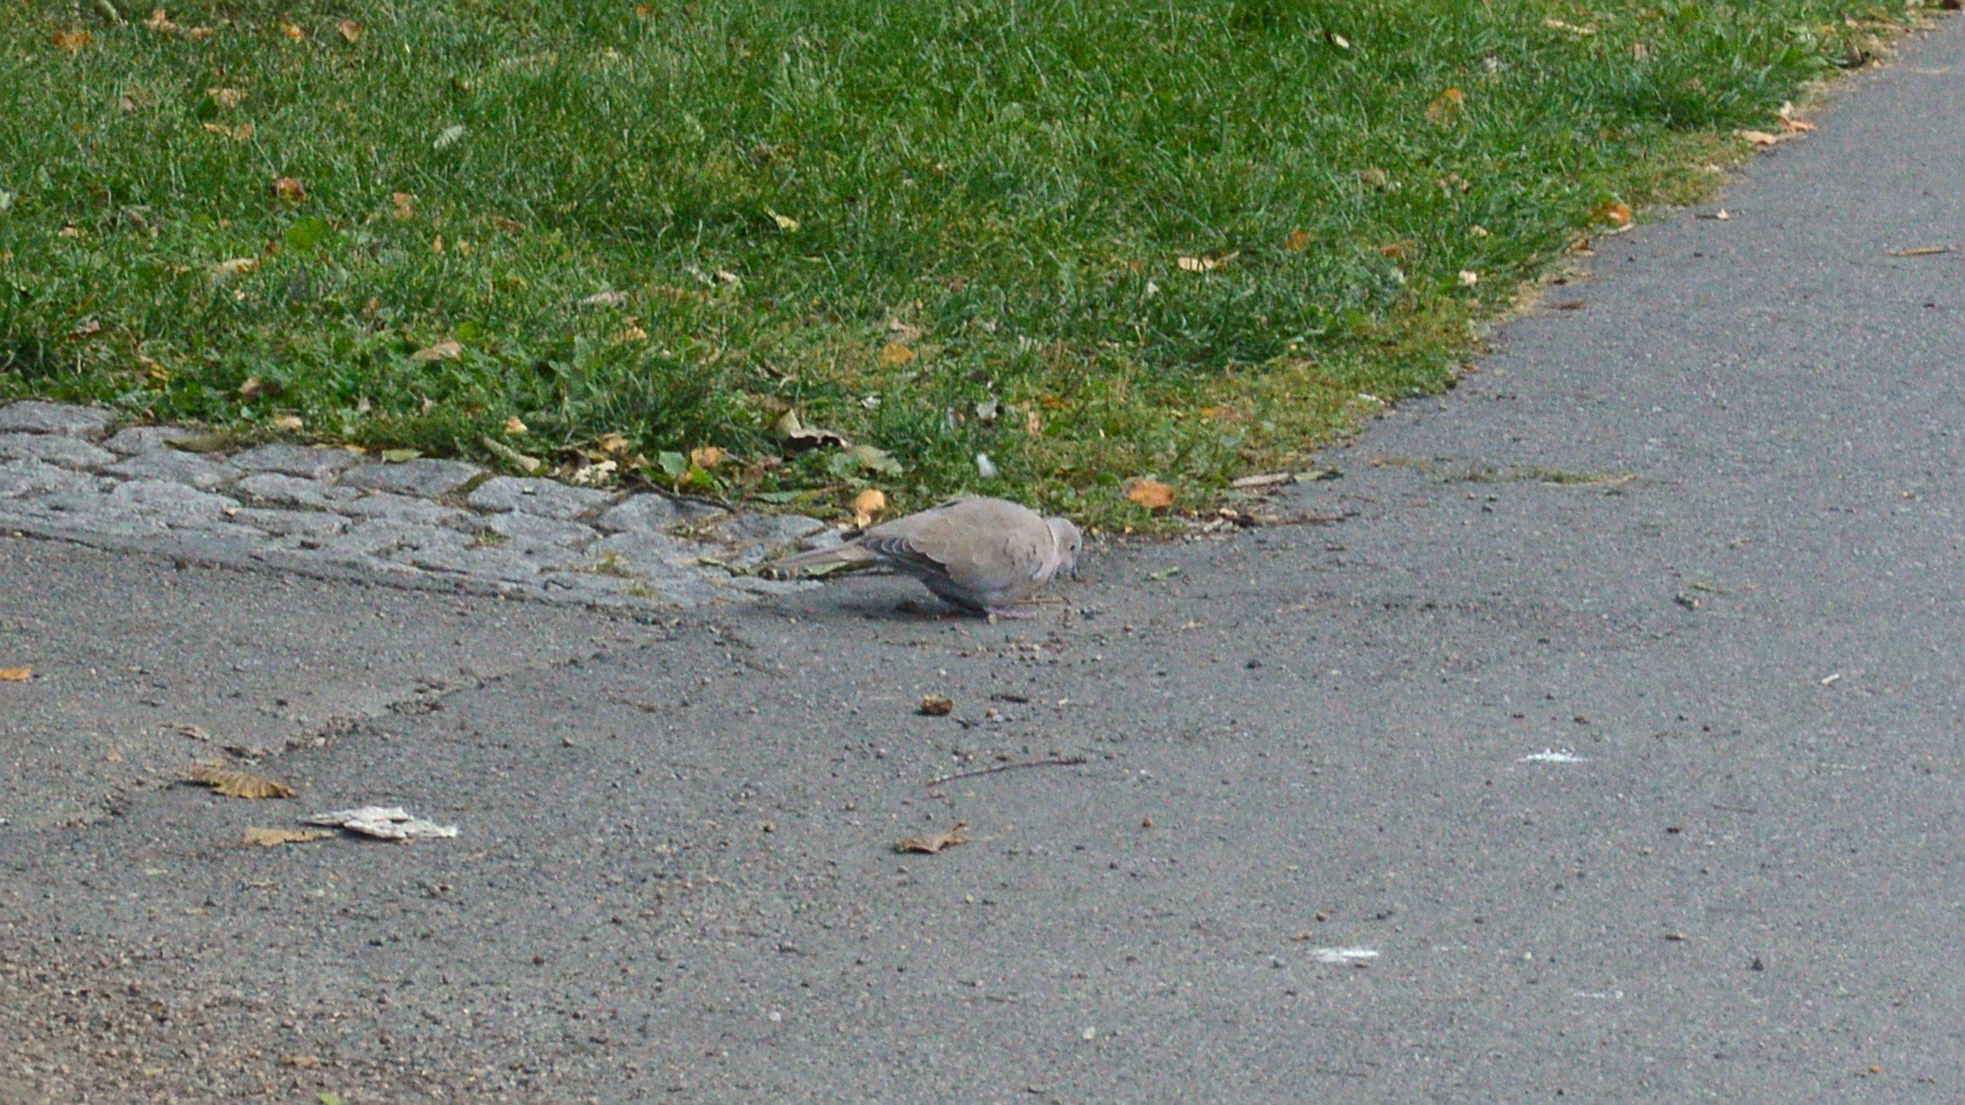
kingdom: Animalia
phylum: Chordata
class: Aves
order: Columbiformes
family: Columbidae
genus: Streptopelia
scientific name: Streptopelia decaocto
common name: Eurasian collared dove
